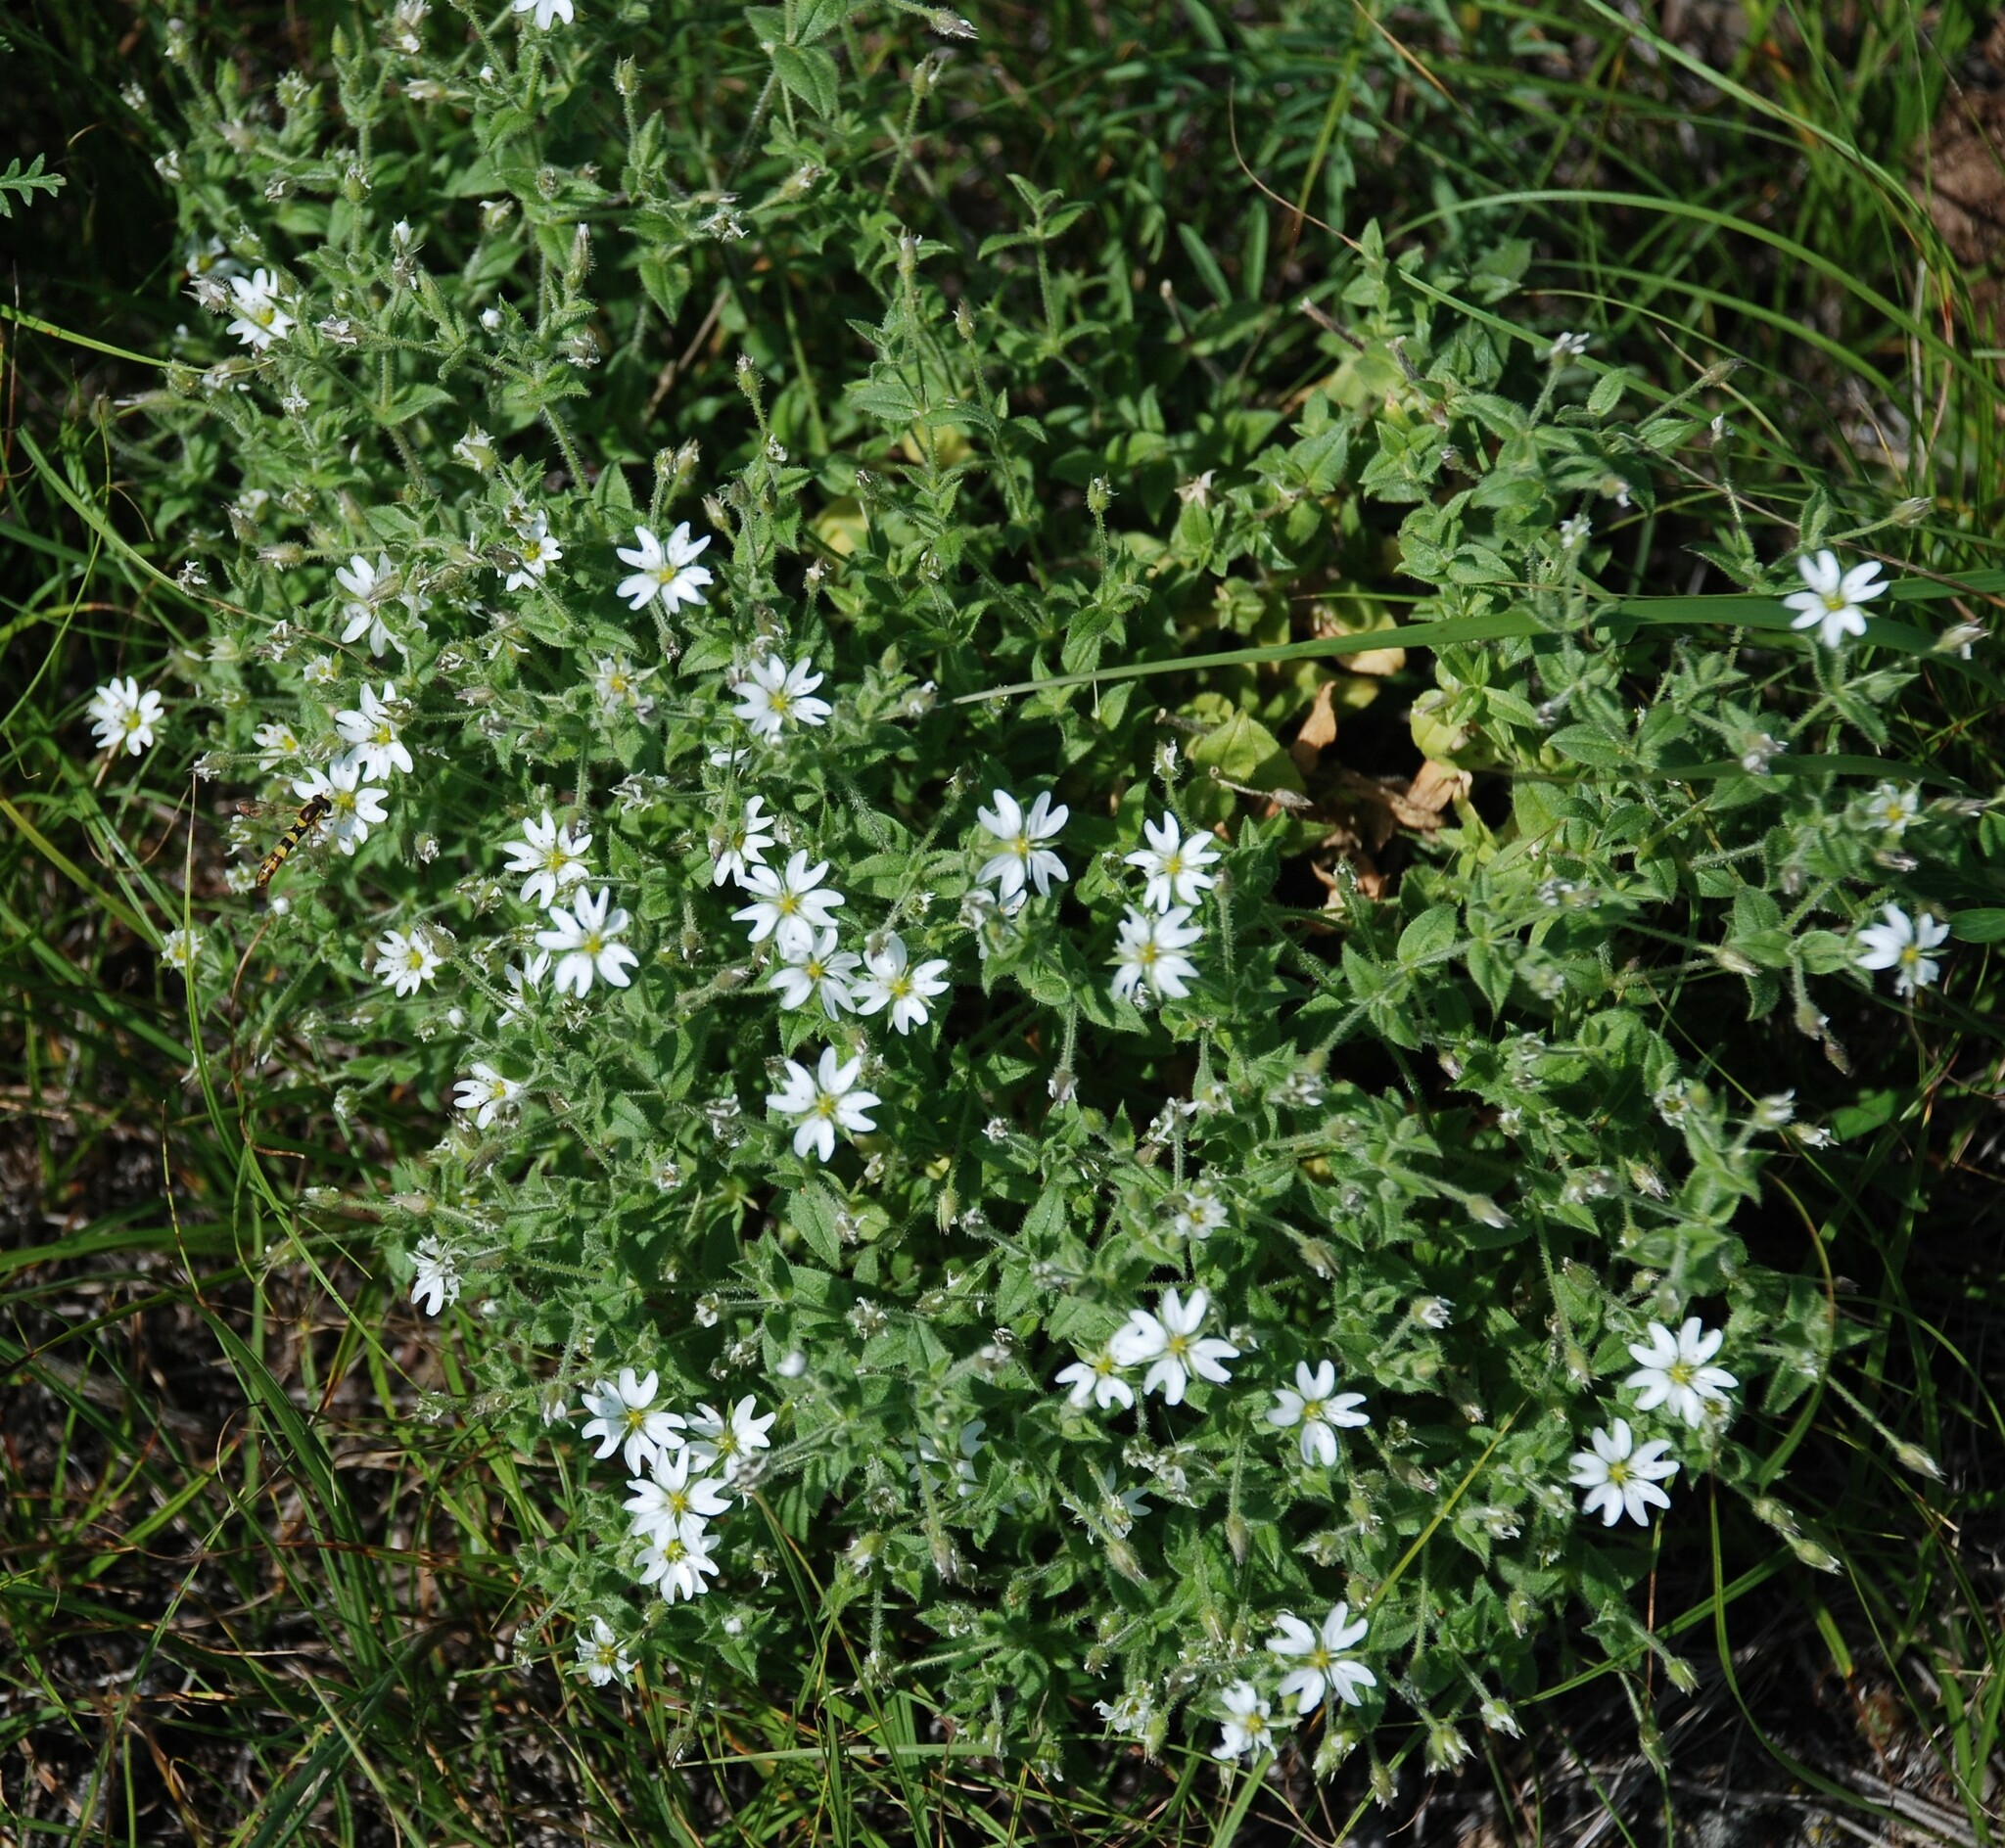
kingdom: Plantae
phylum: Tracheophyta
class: Magnoliopsida
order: Caryophyllales
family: Caryophyllaceae
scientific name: Caryophyllaceae
